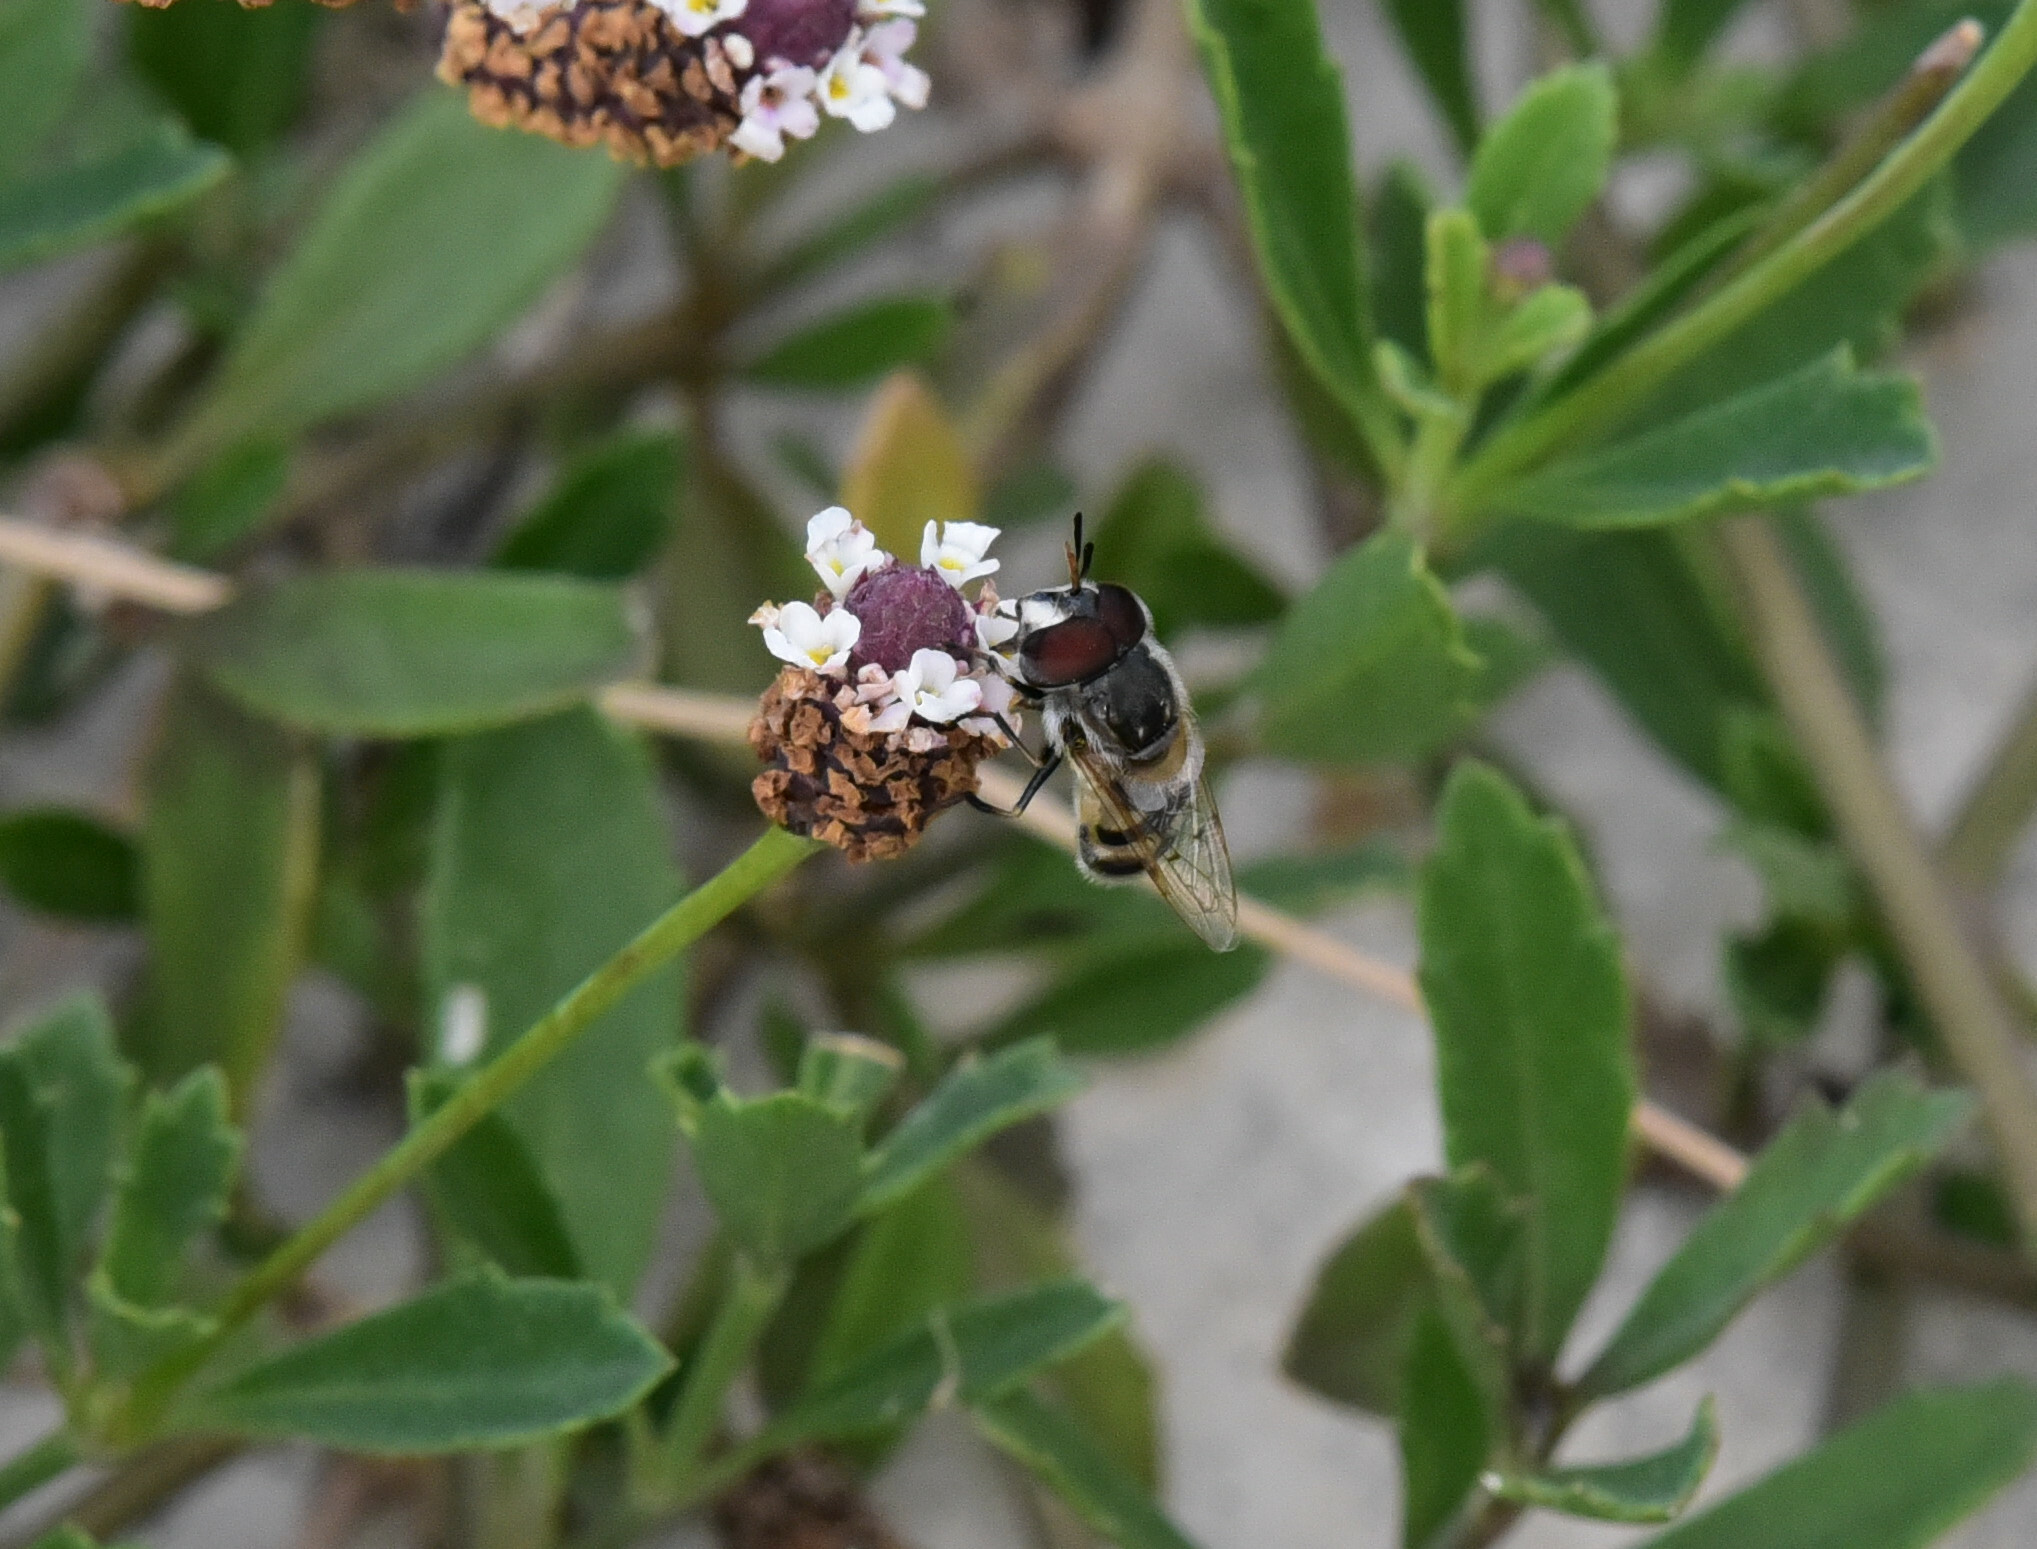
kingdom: Animalia
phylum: Arthropoda
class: Insecta
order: Diptera
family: Syrphidae
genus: Copestylum
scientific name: Copestylum marginatum
